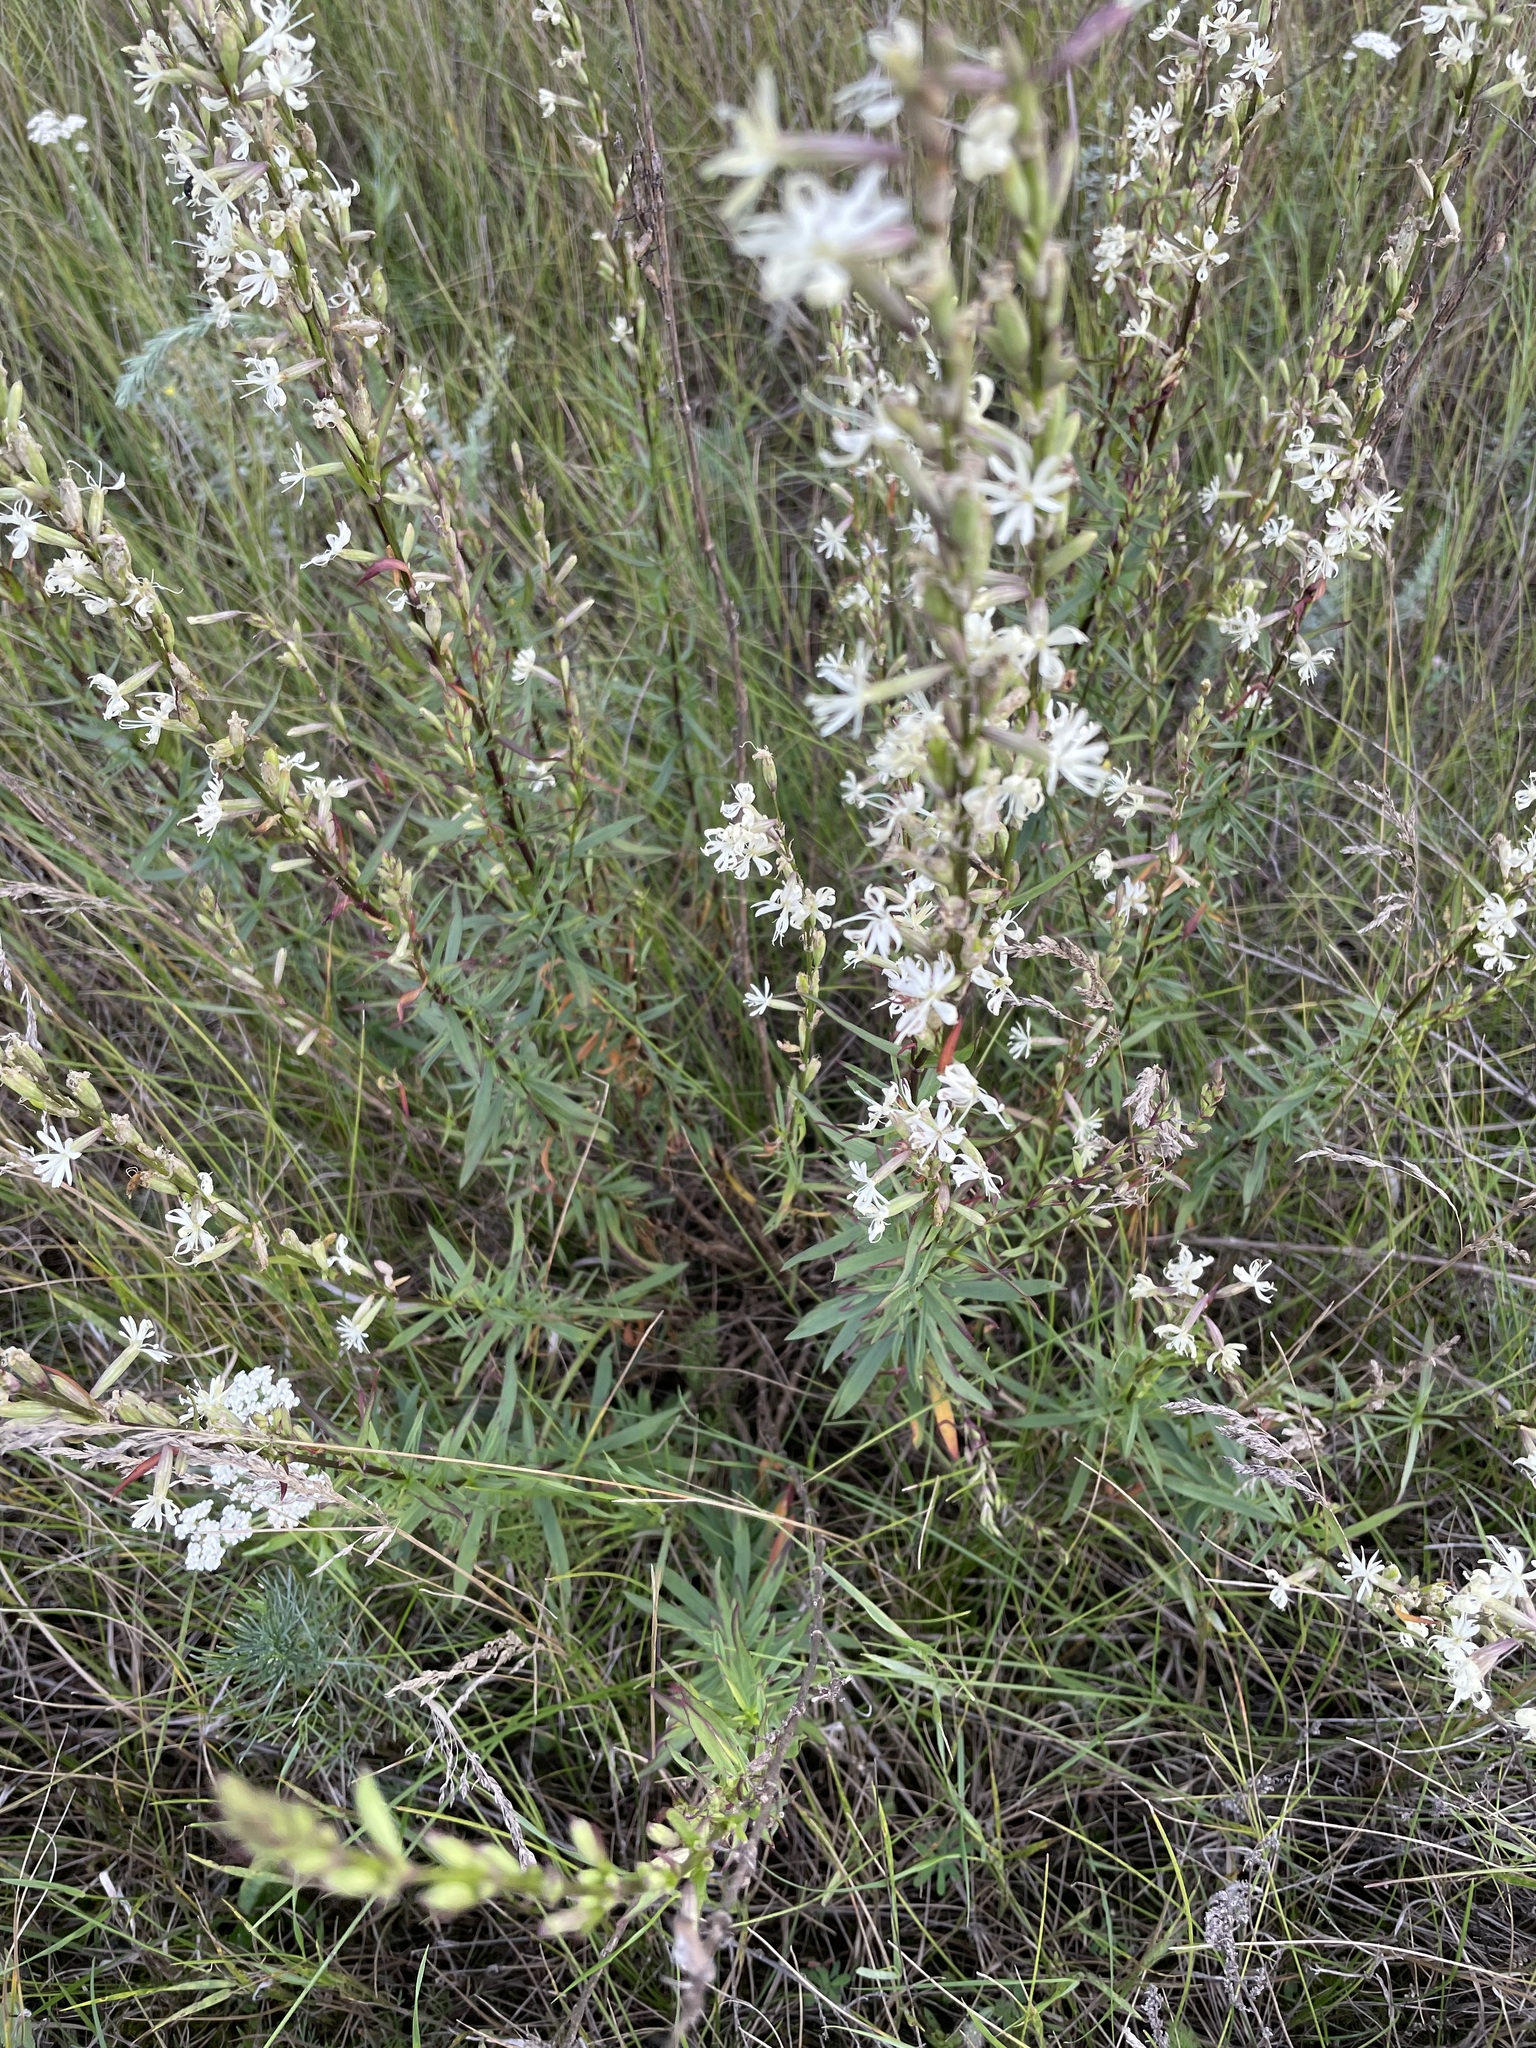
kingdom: Plantae
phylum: Tracheophyta
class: Magnoliopsida
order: Caryophyllales
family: Caryophyllaceae
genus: Silene
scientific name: Silene tatarica
